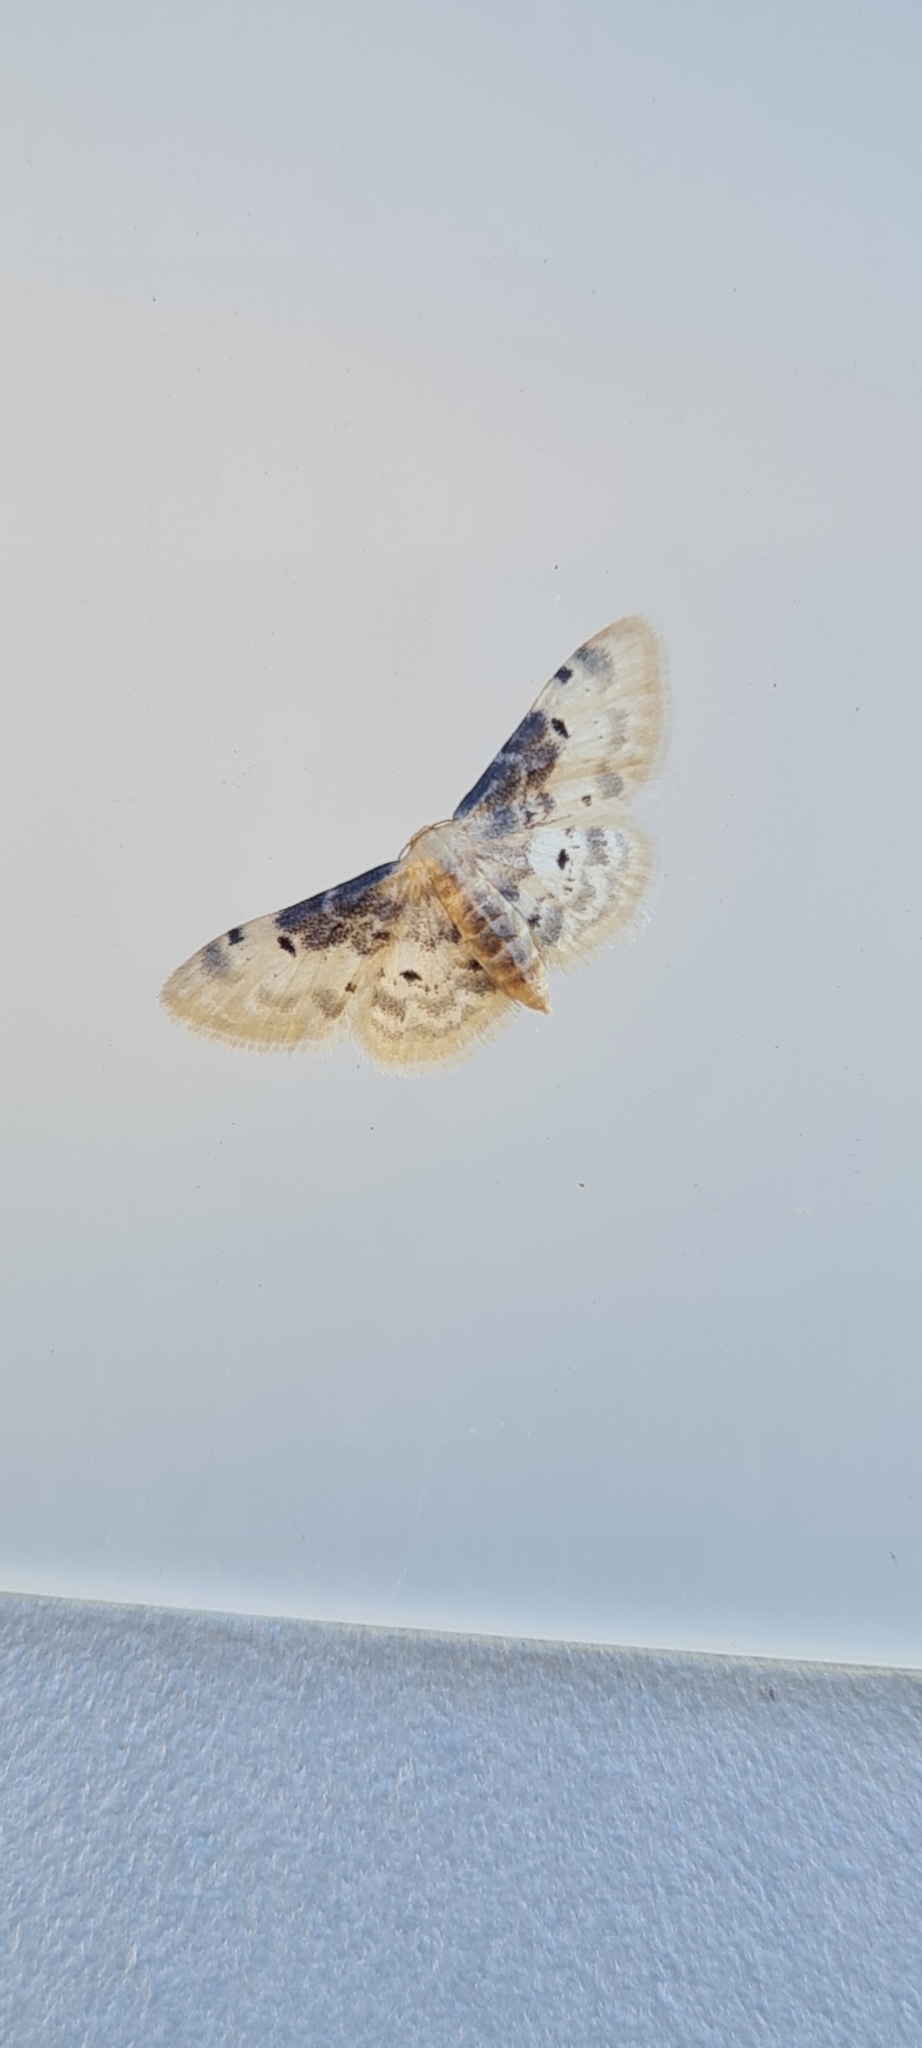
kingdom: Animalia
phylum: Arthropoda
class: Insecta
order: Lepidoptera
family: Geometridae
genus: Idaea
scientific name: Idaea filicata
